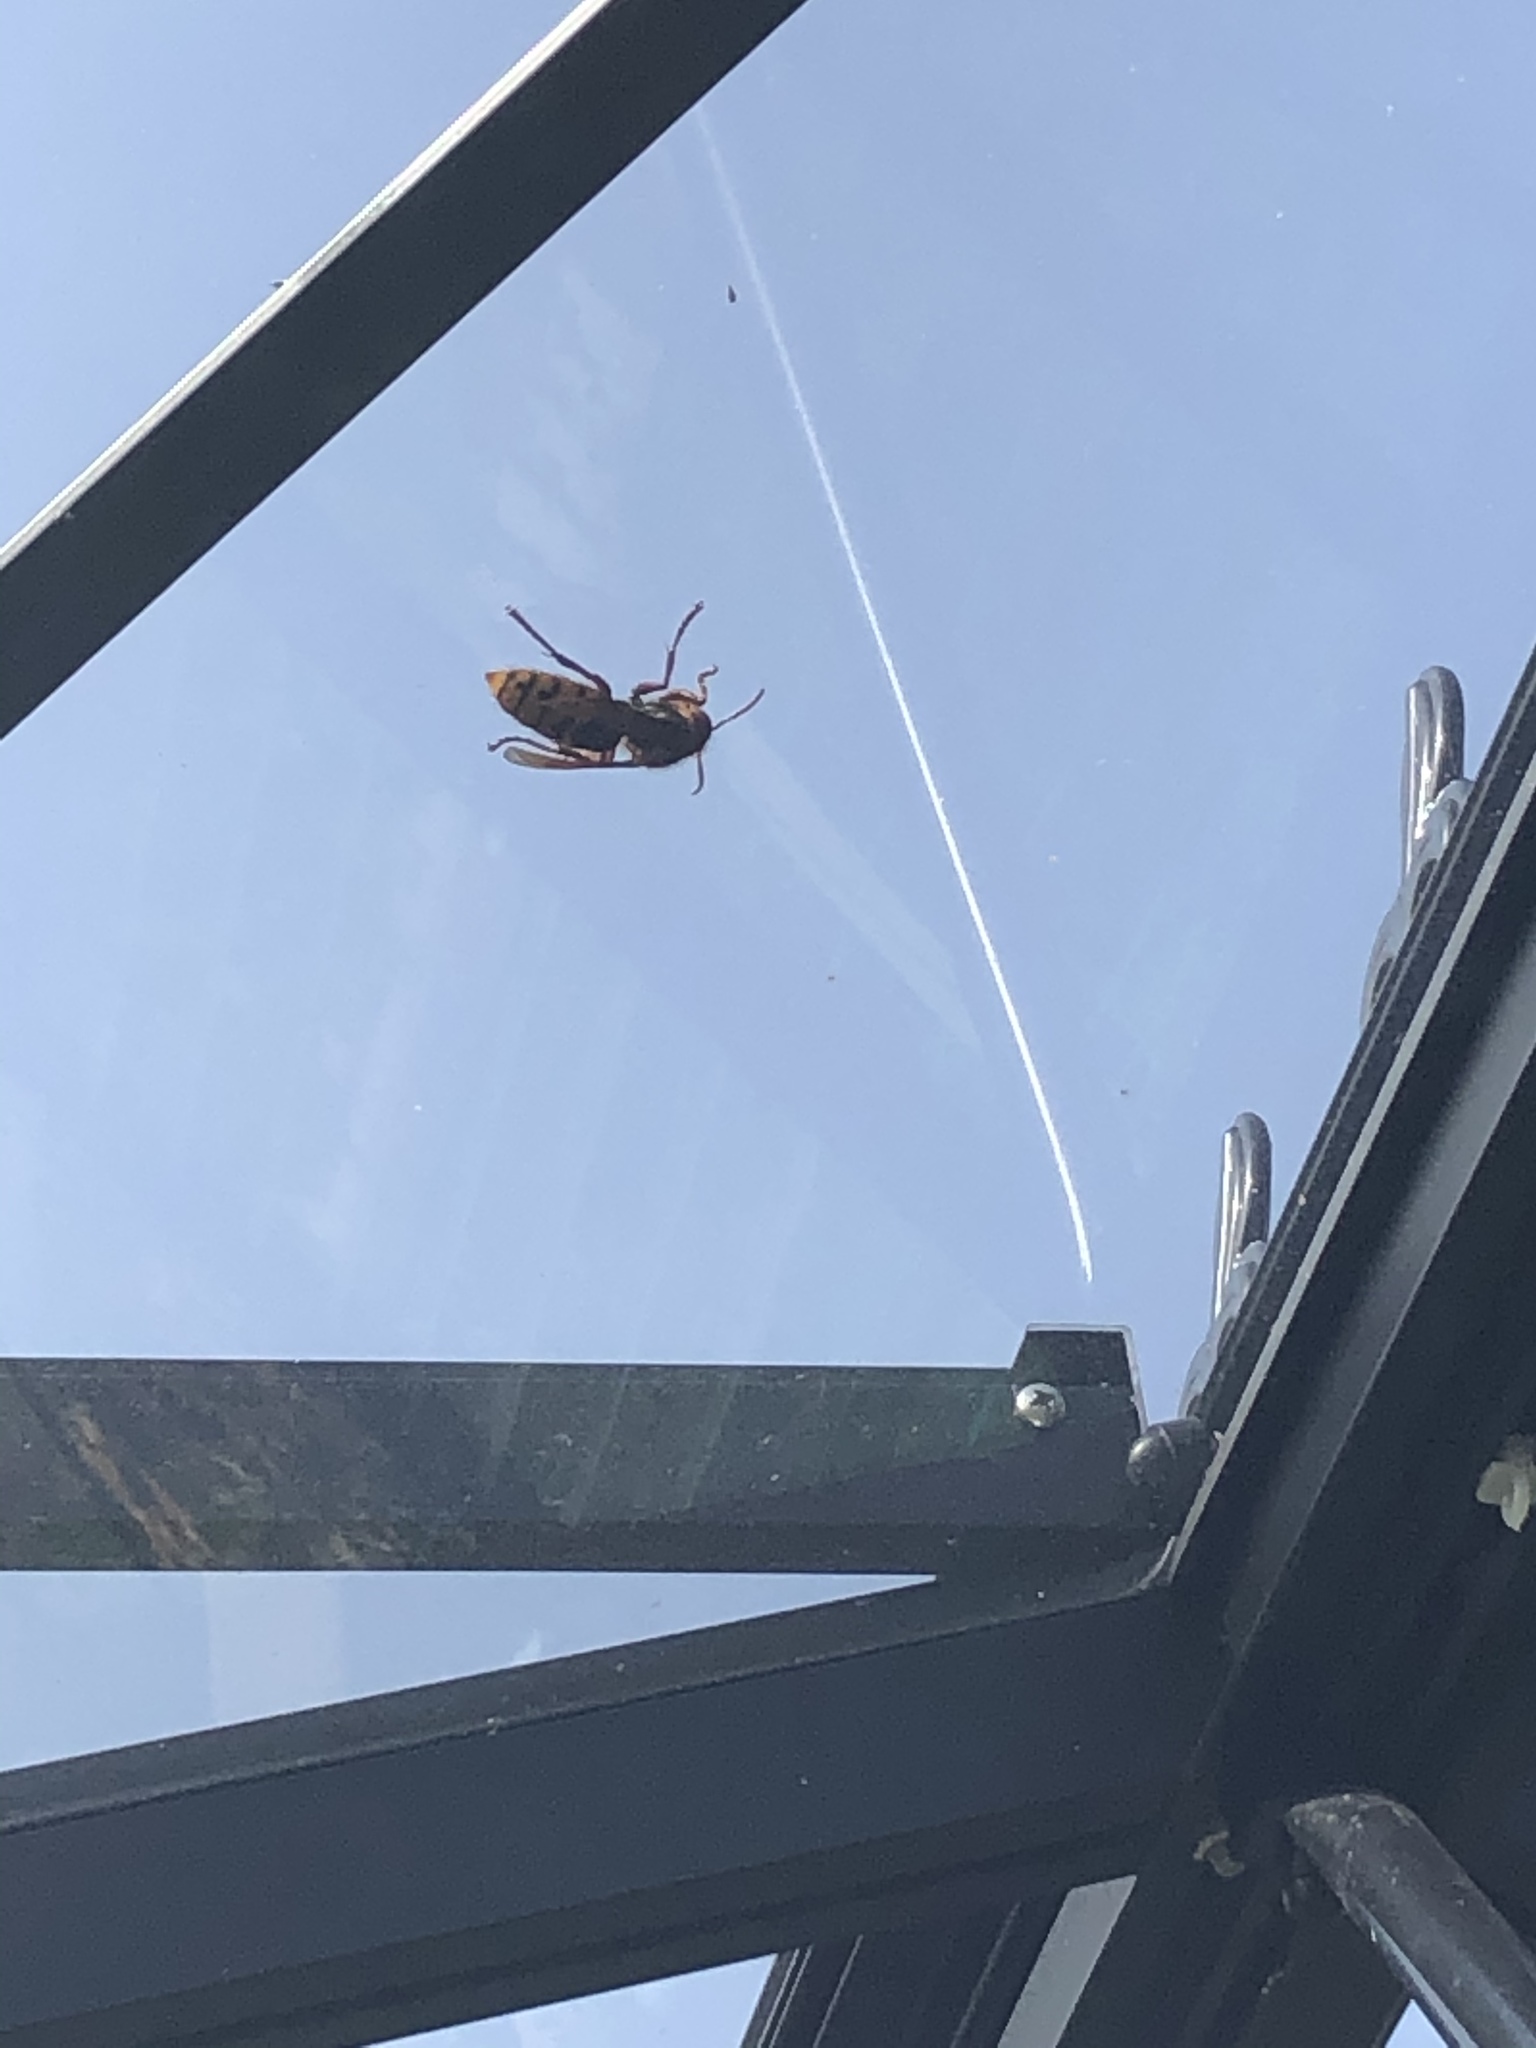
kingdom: Animalia
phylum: Arthropoda
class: Insecta
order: Hymenoptera
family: Vespidae
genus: Vespa
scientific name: Vespa crabro
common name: Hornet
